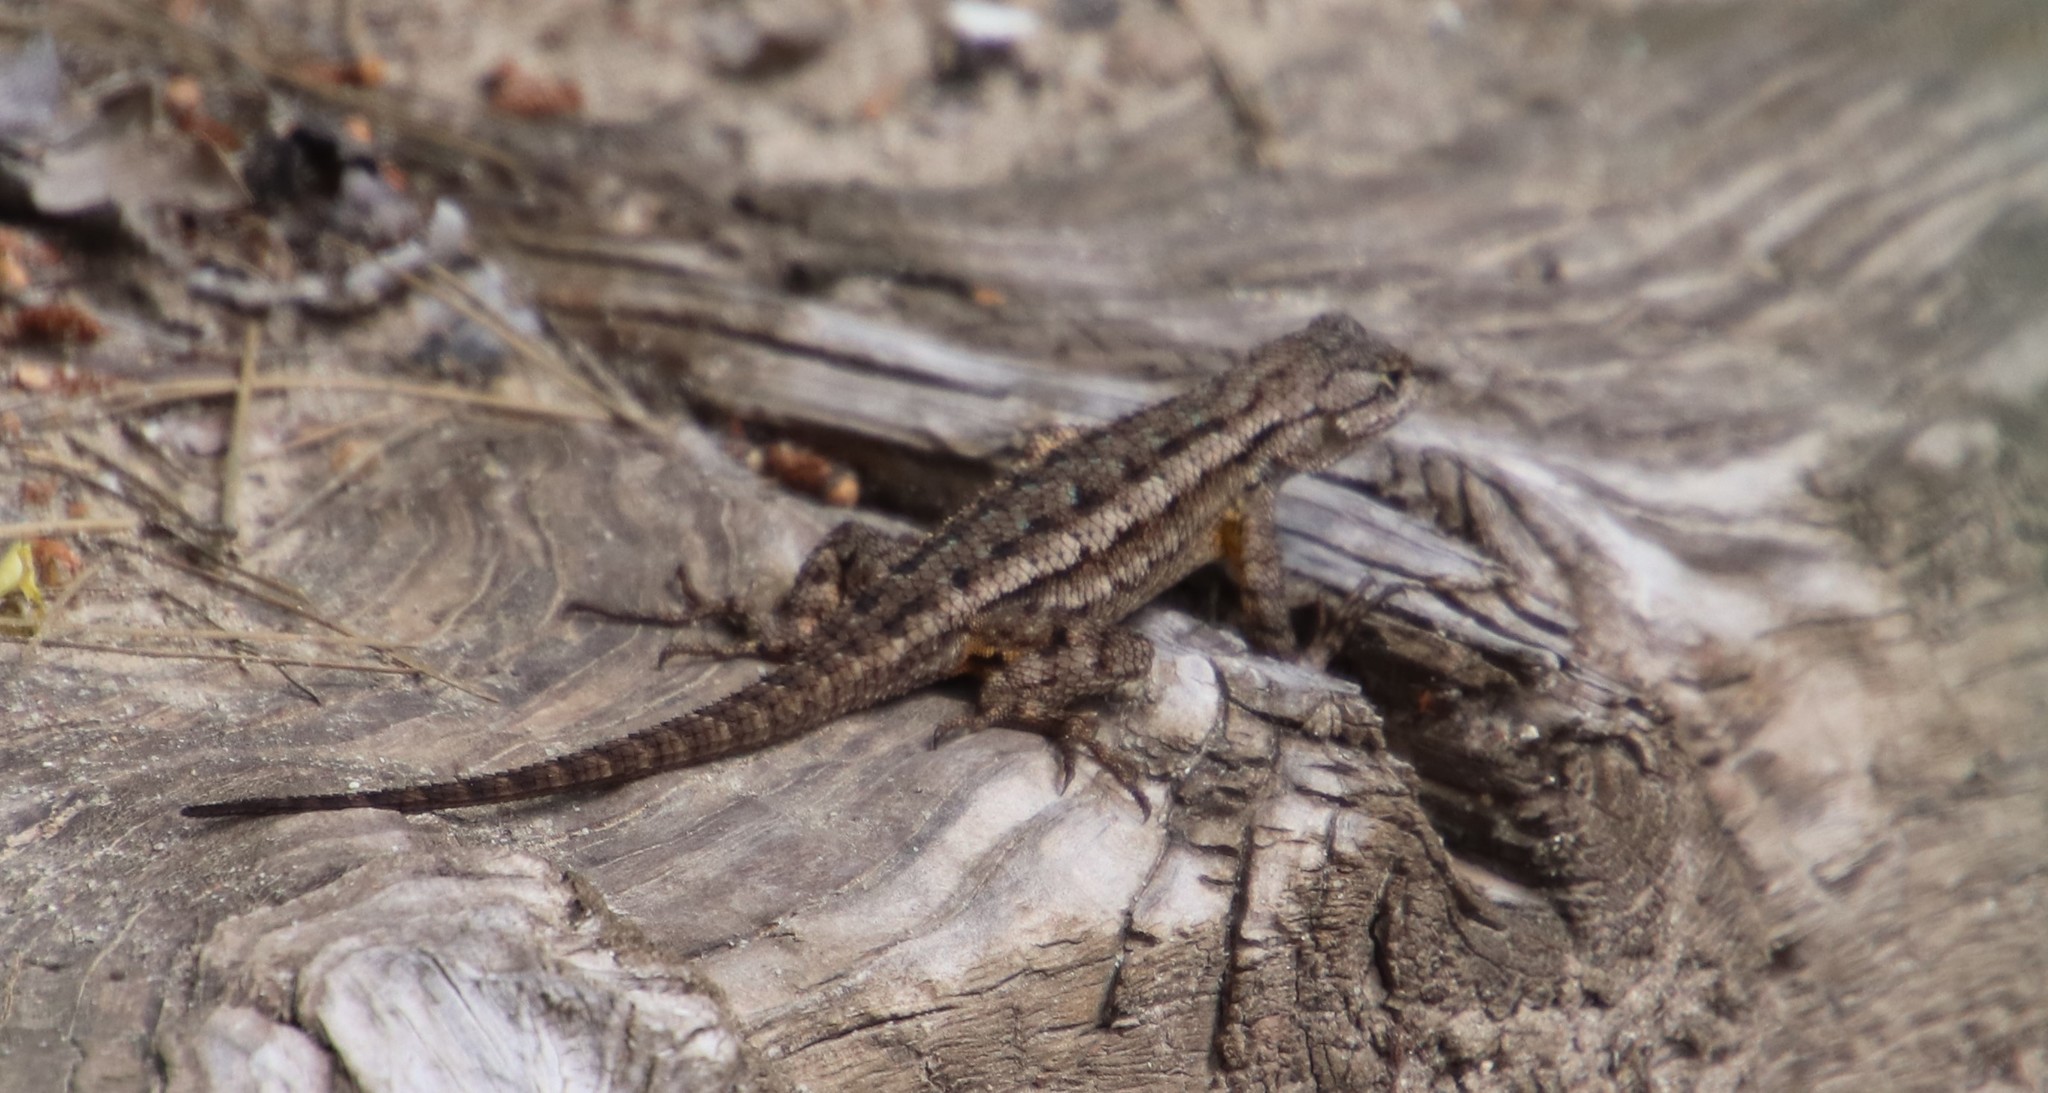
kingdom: Animalia
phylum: Chordata
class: Squamata
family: Phrynosomatidae
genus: Sceloporus
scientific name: Sceloporus occidentalis
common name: Western fence lizard
